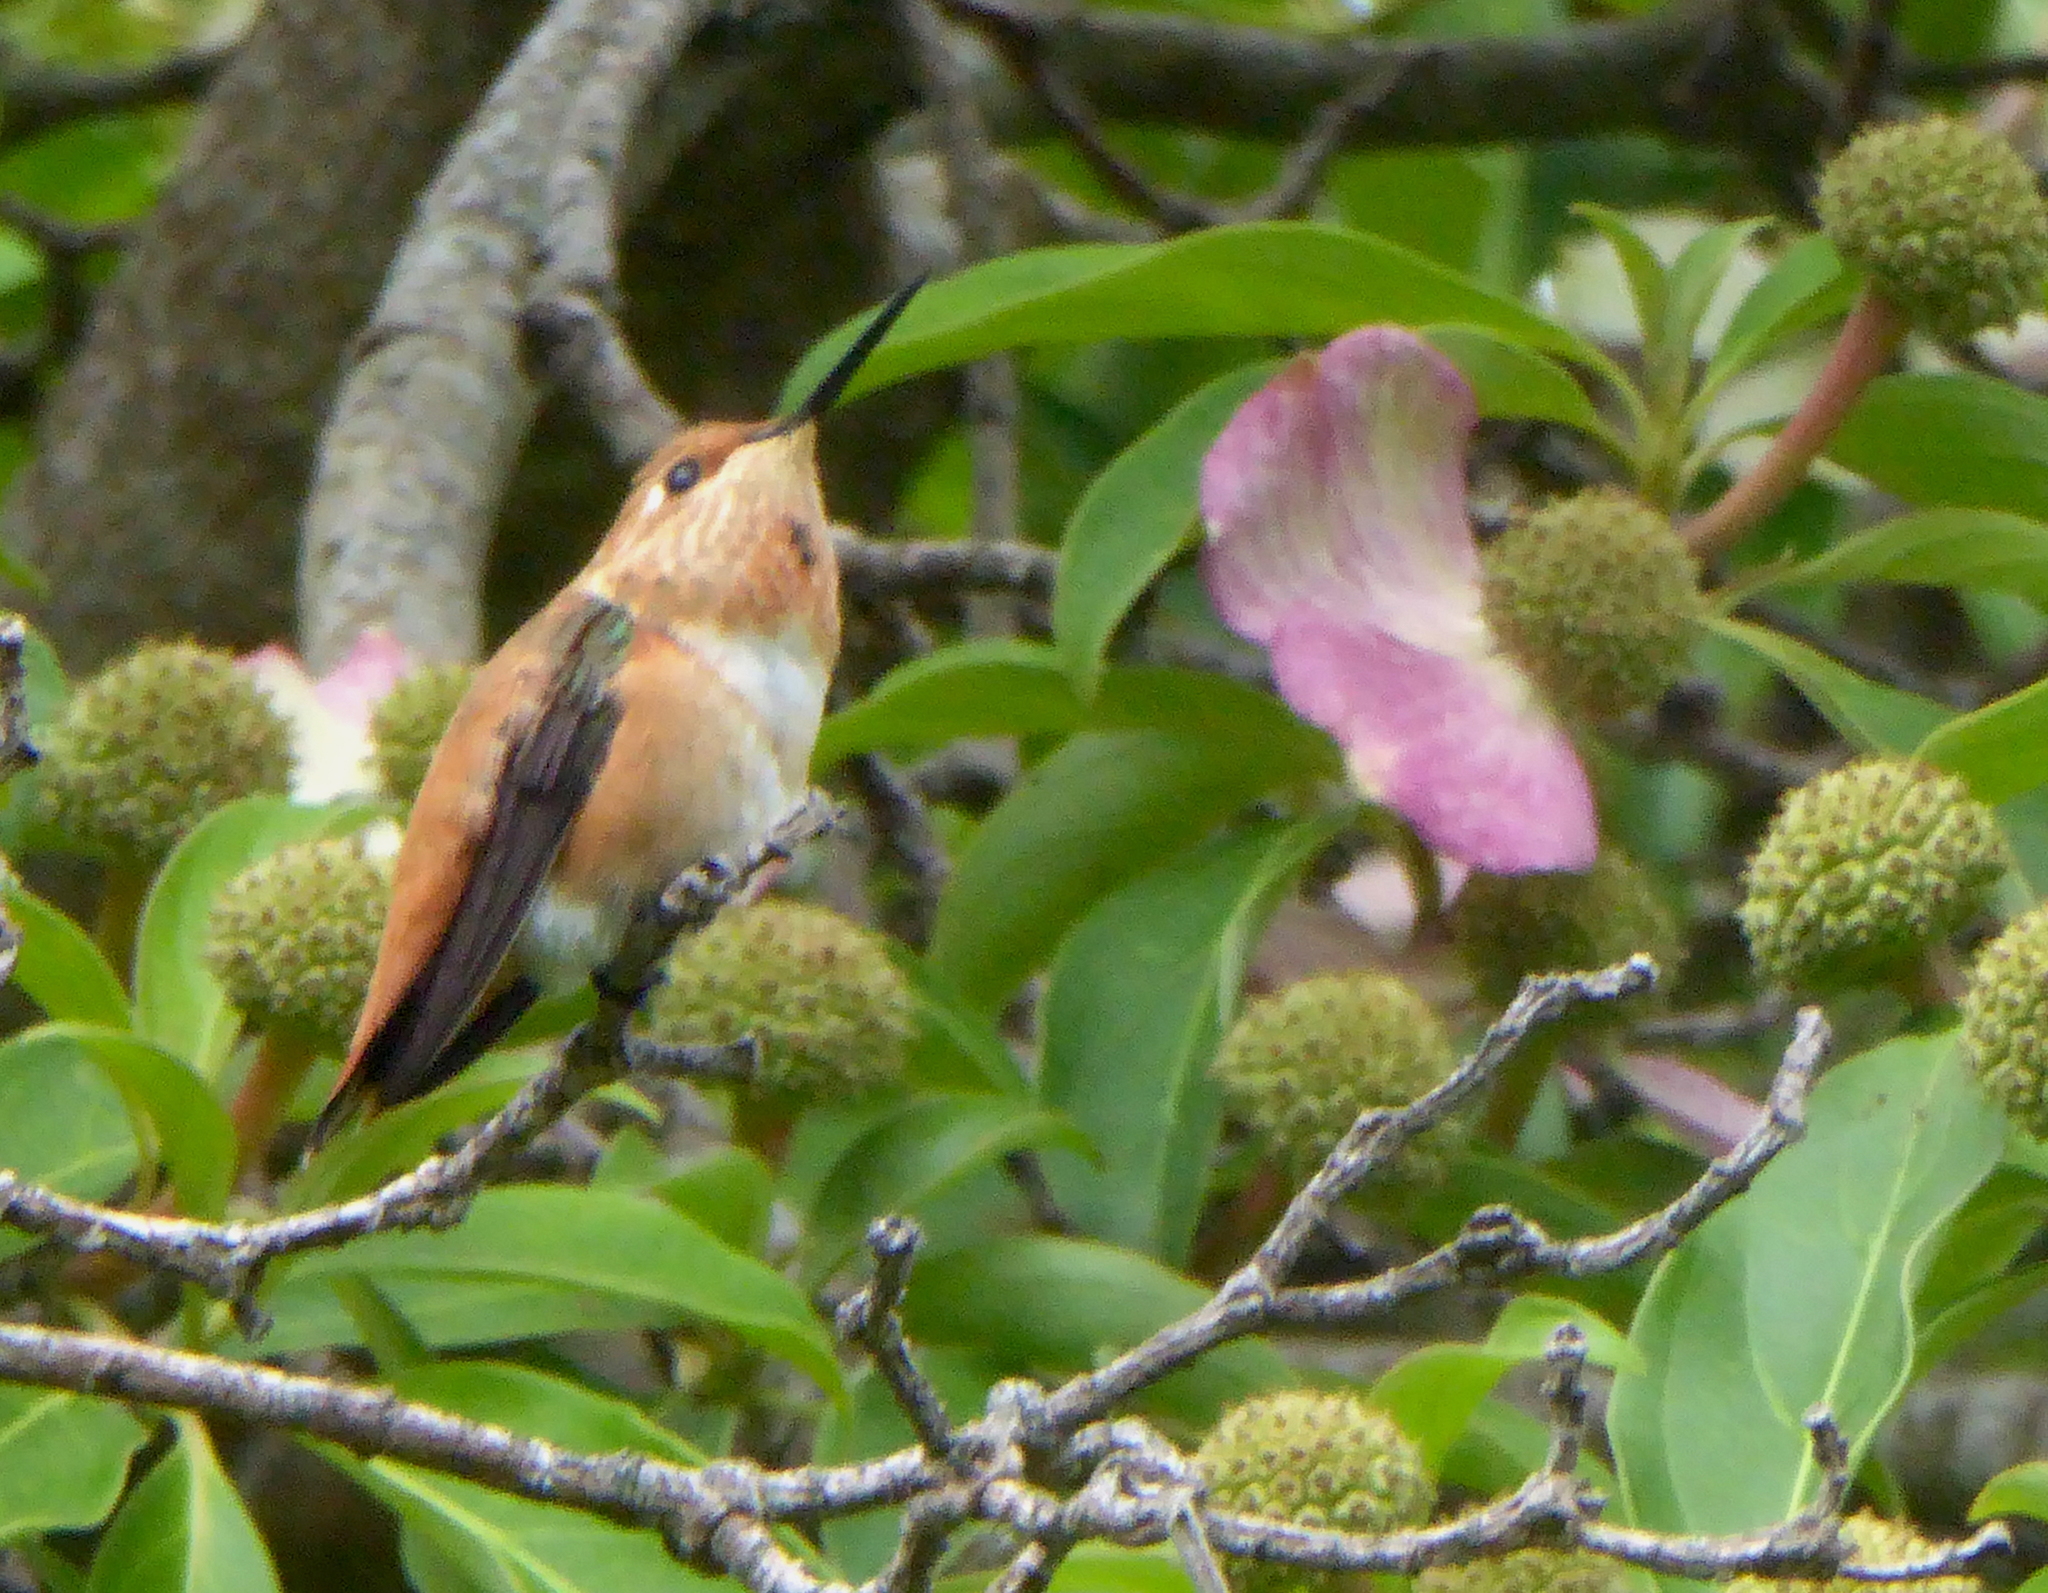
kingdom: Animalia
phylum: Chordata
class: Aves
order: Apodiformes
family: Trochilidae
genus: Selasphorus
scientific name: Selasphorus rufus
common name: Rufous hummingbird
